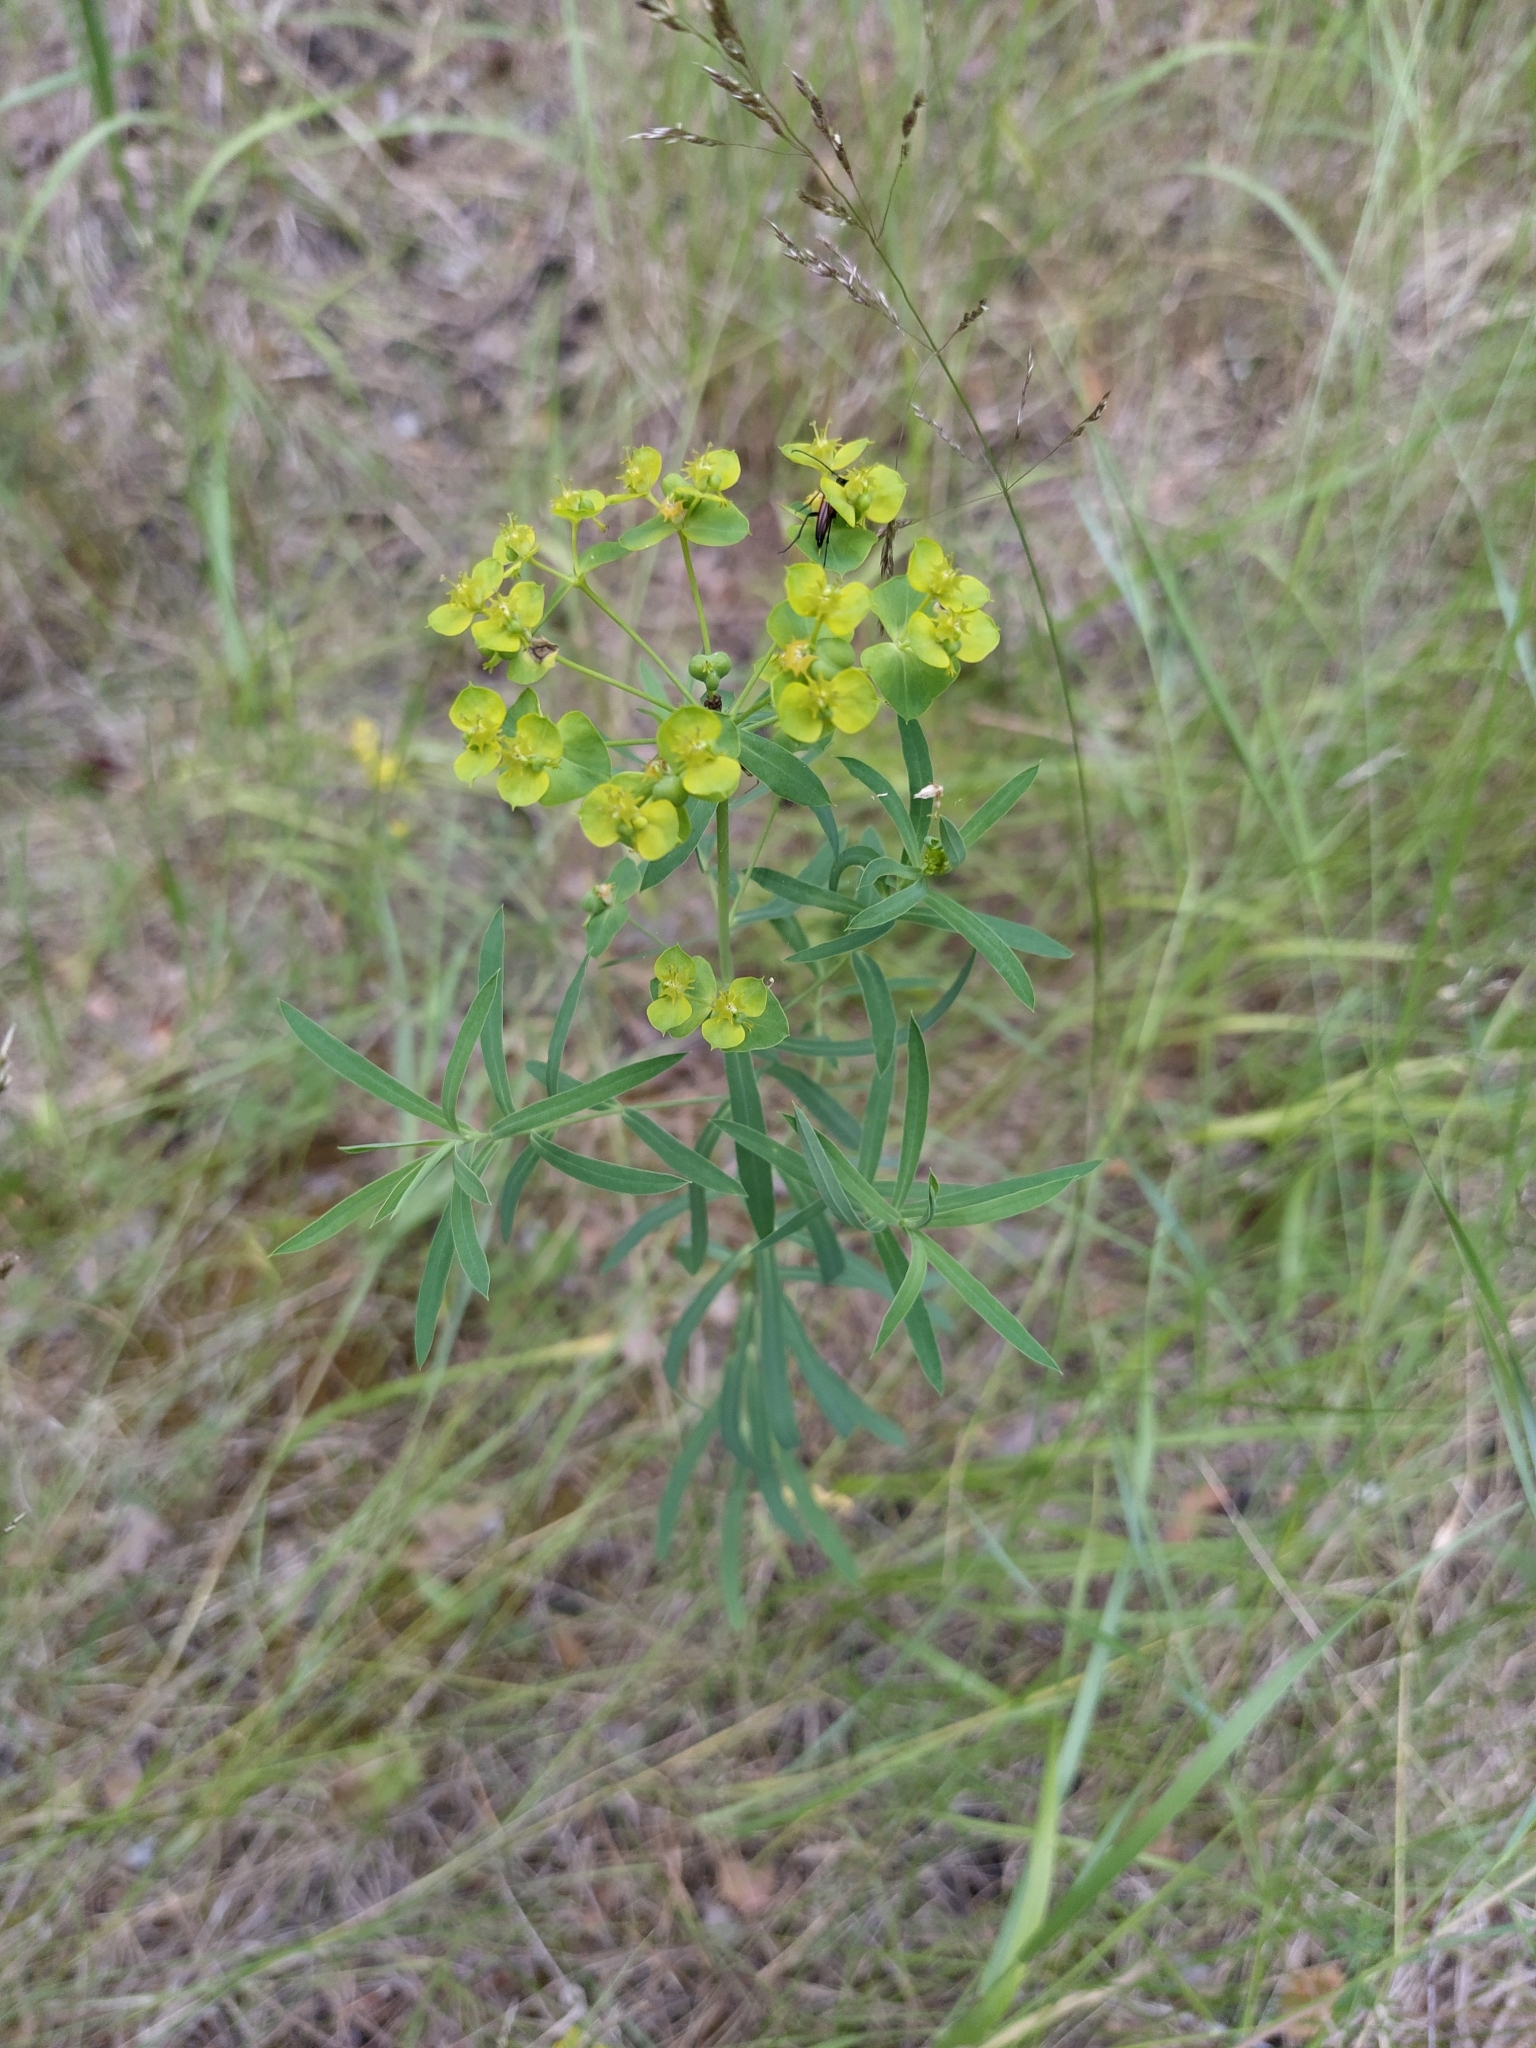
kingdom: Plantae
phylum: Tracheophyta
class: Magnoliopsida
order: Malpighiales
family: Euphorbiaceae
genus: Euphorbia
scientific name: Euphorbia virgata
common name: Leafy spurge
